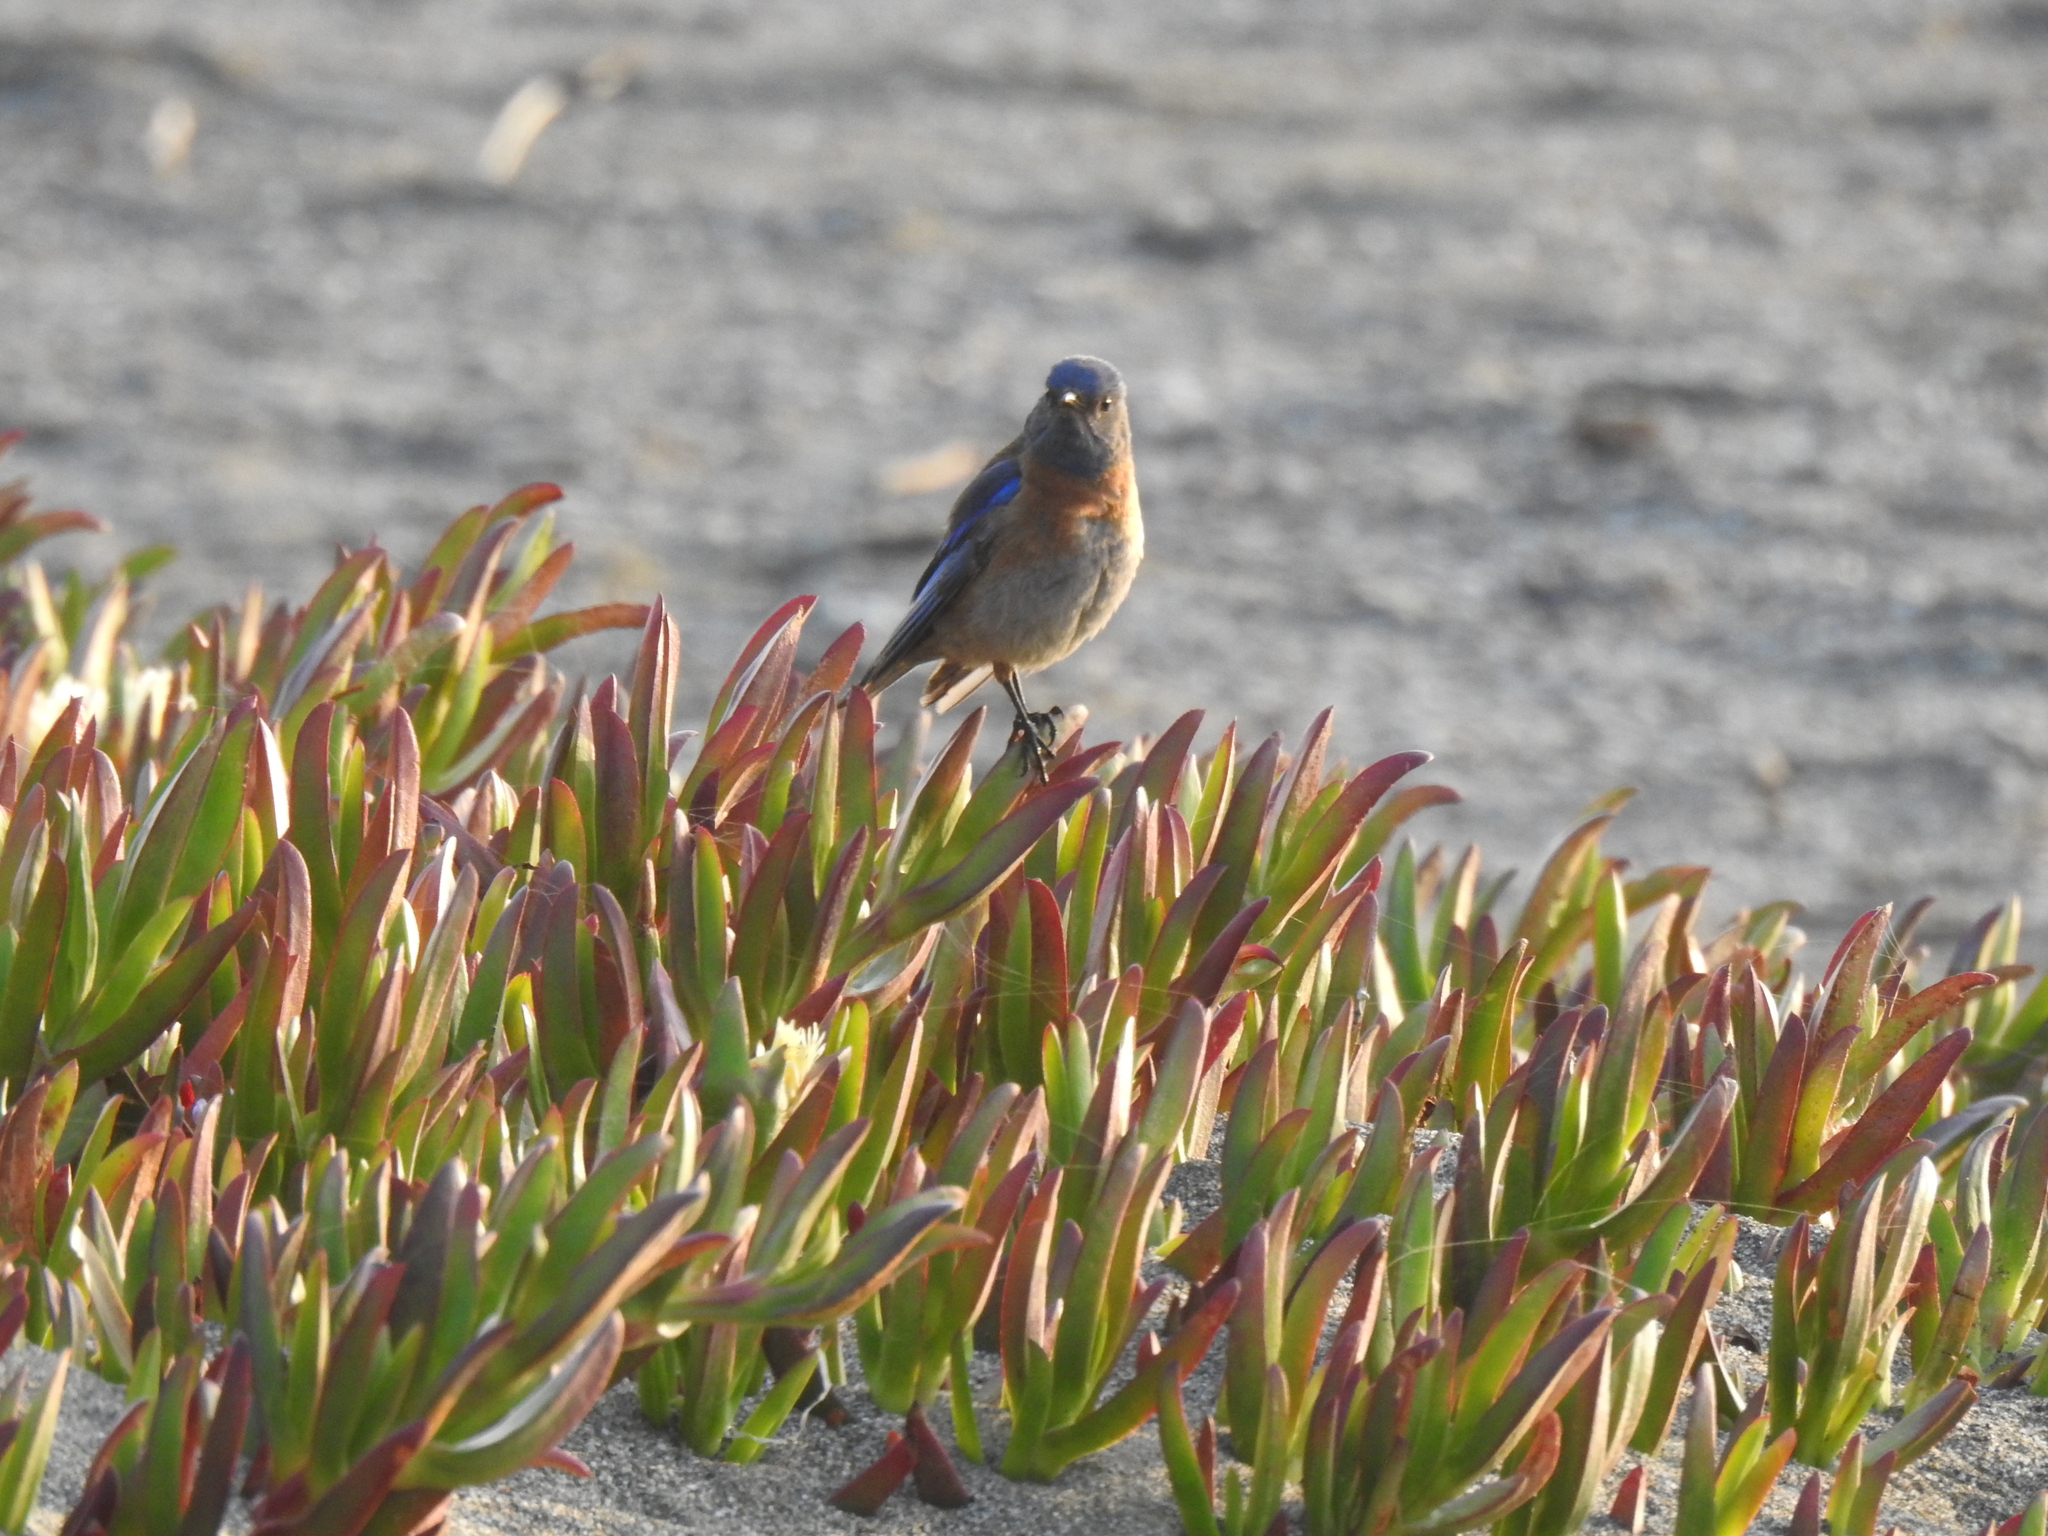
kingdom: Animalia
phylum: Chordata
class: Aves
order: Passeriformes
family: Turdidae
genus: Sialia
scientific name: Sialia mexicana
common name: Western bluebird
